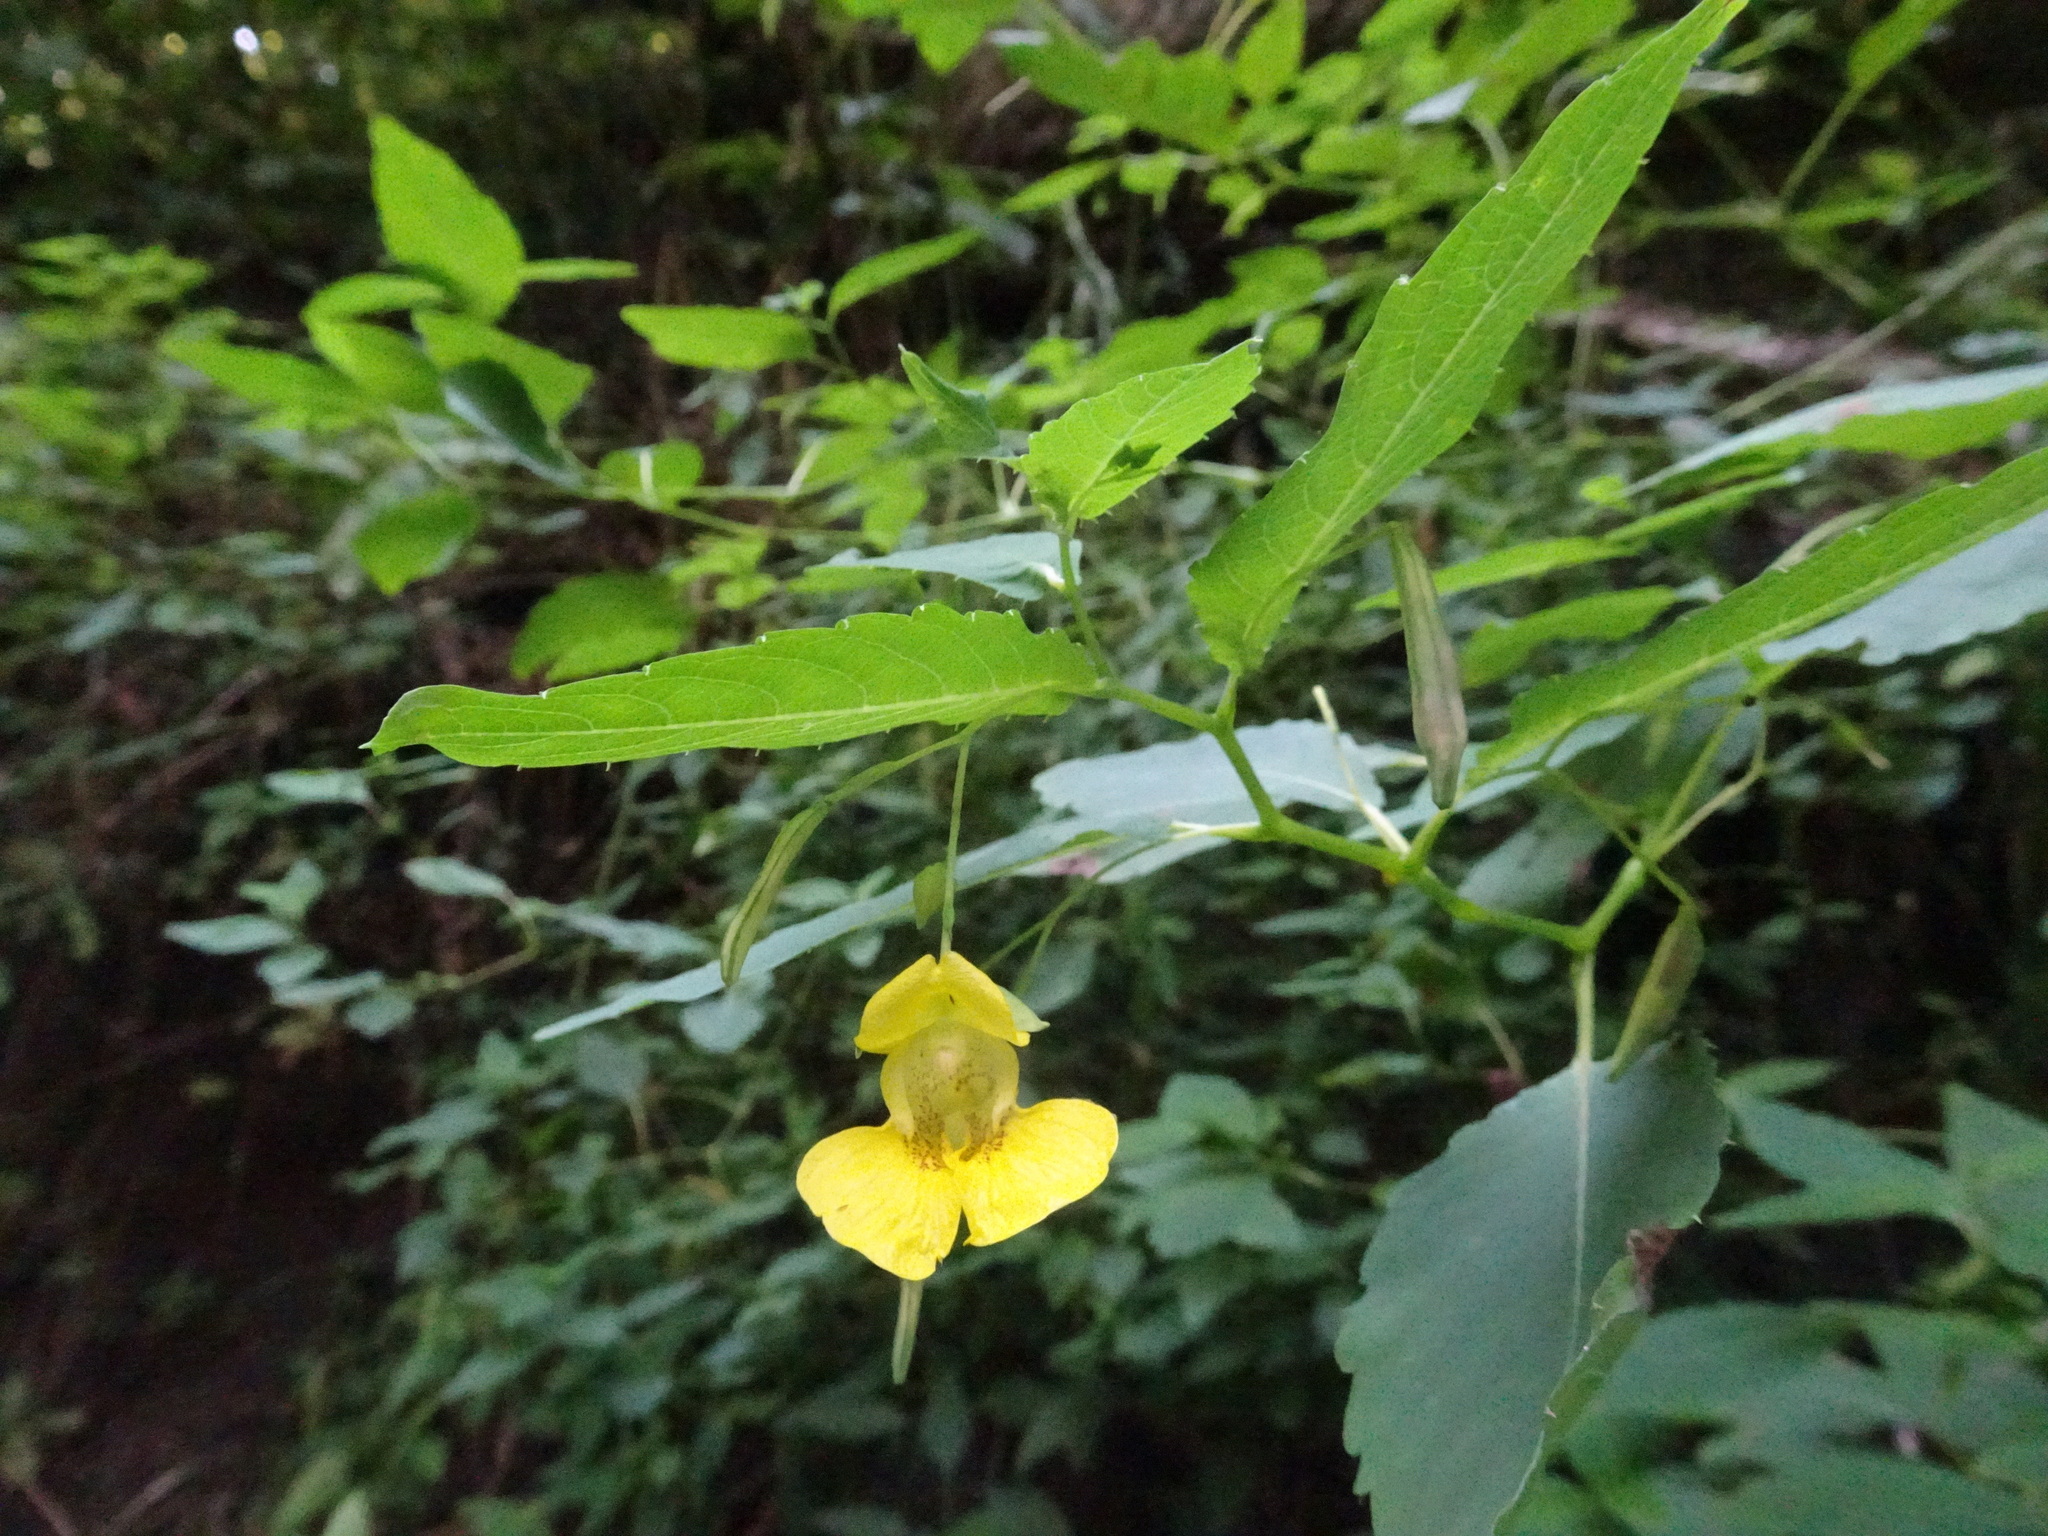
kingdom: Plantae
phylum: Tracheophyta
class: Magnoliopsida
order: Ericales
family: Balsaminaceae
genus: Impatiens
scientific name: Impatiens pallida
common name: Pale snapweed
